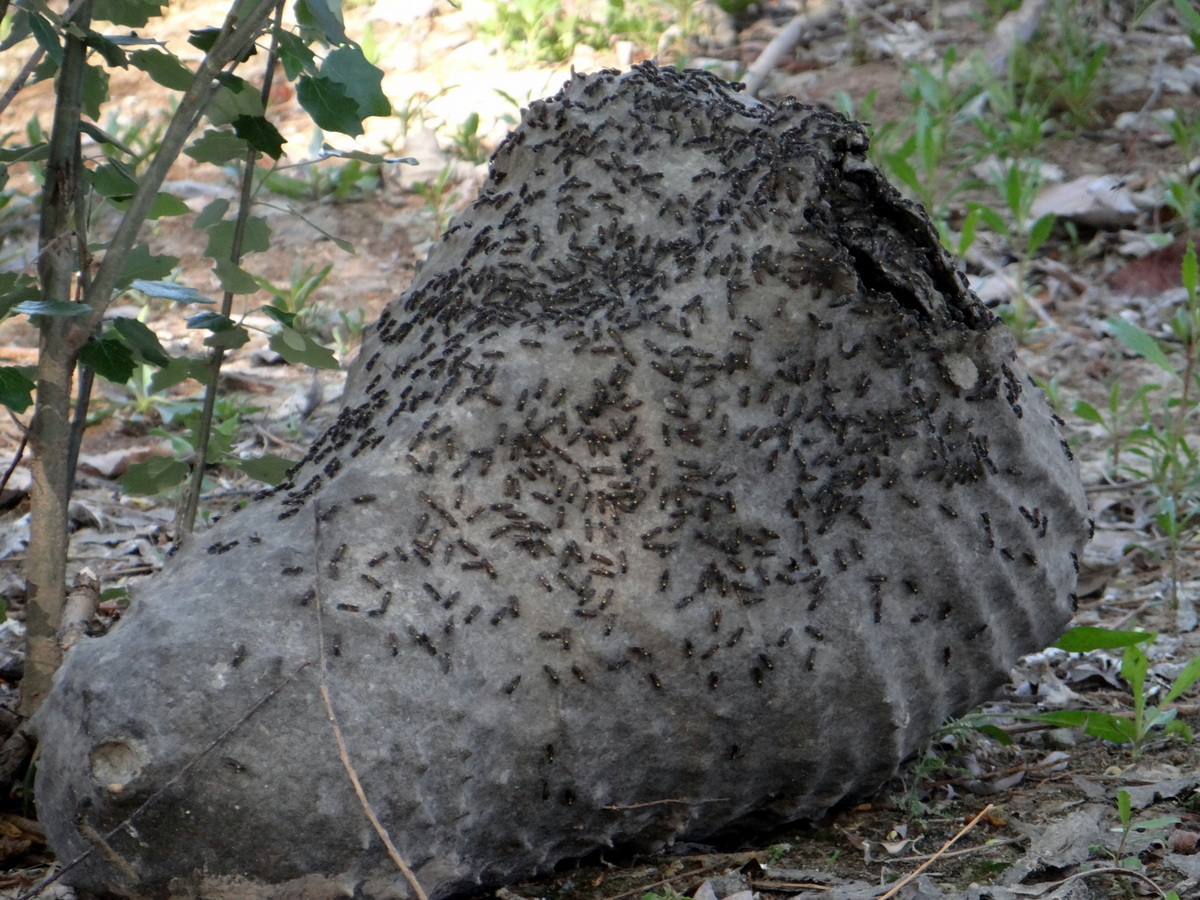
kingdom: Animalia
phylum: Arthropoda
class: Insecta
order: Hymenoptera
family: Eumenidae
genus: Polybia
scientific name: Polybia scutellaris
